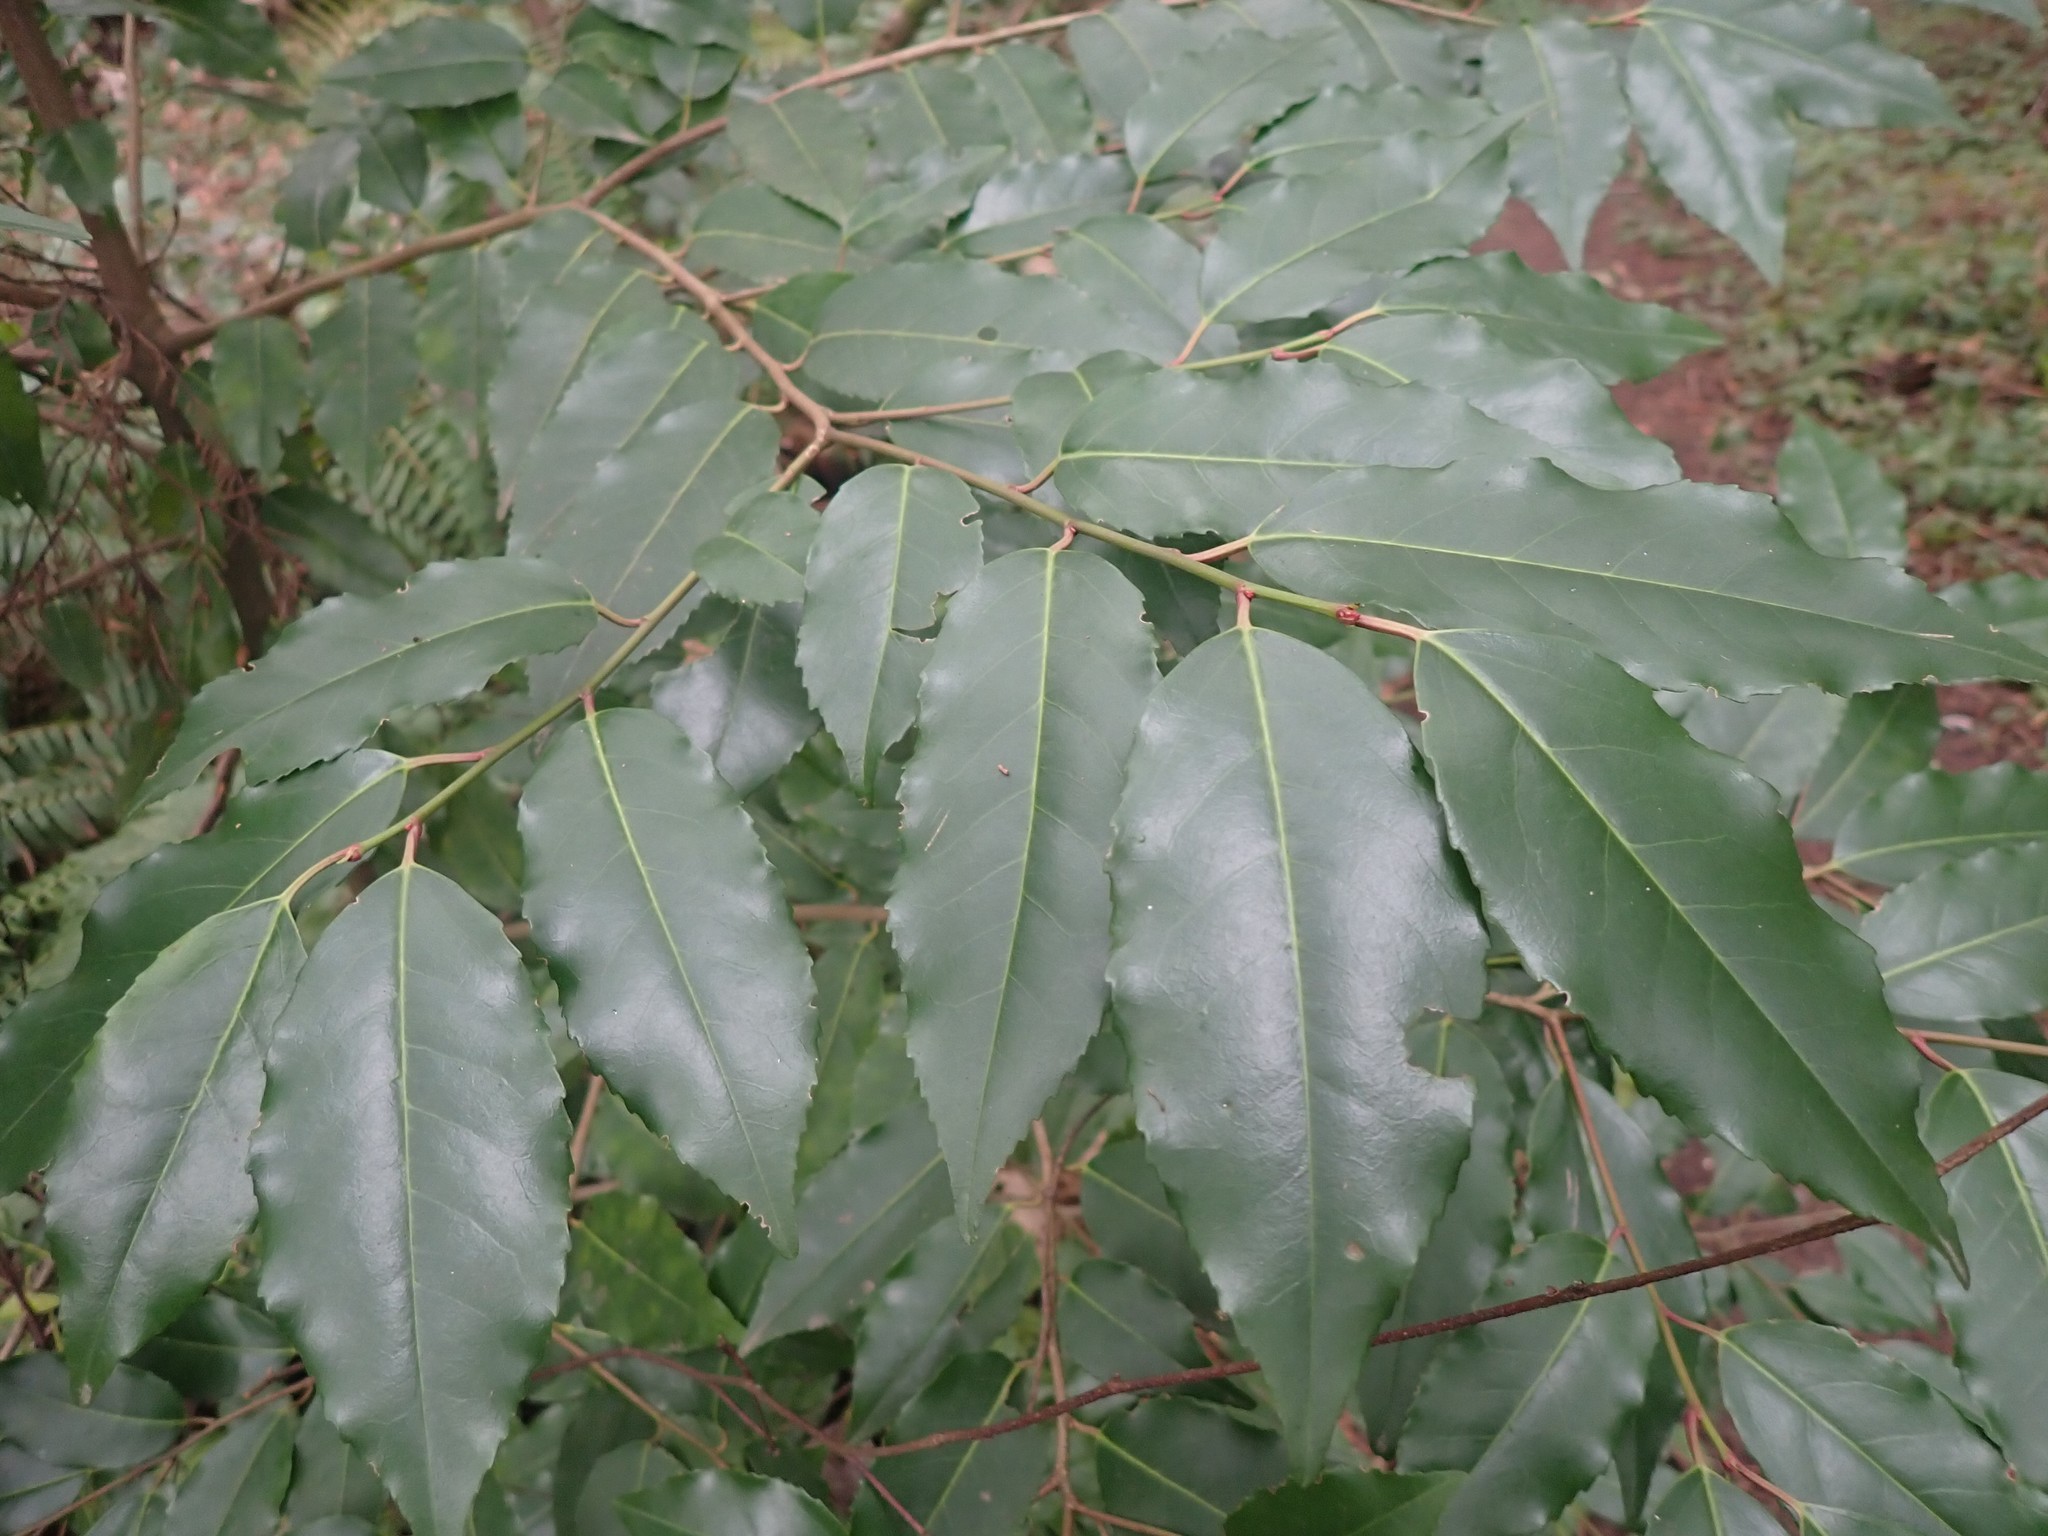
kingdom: Plantae
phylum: Tracheophyta
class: Magnoliopsida
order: Rosales
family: Rosaceae
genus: Prunus
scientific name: Prunus lusitanica
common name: Portugal laurel
